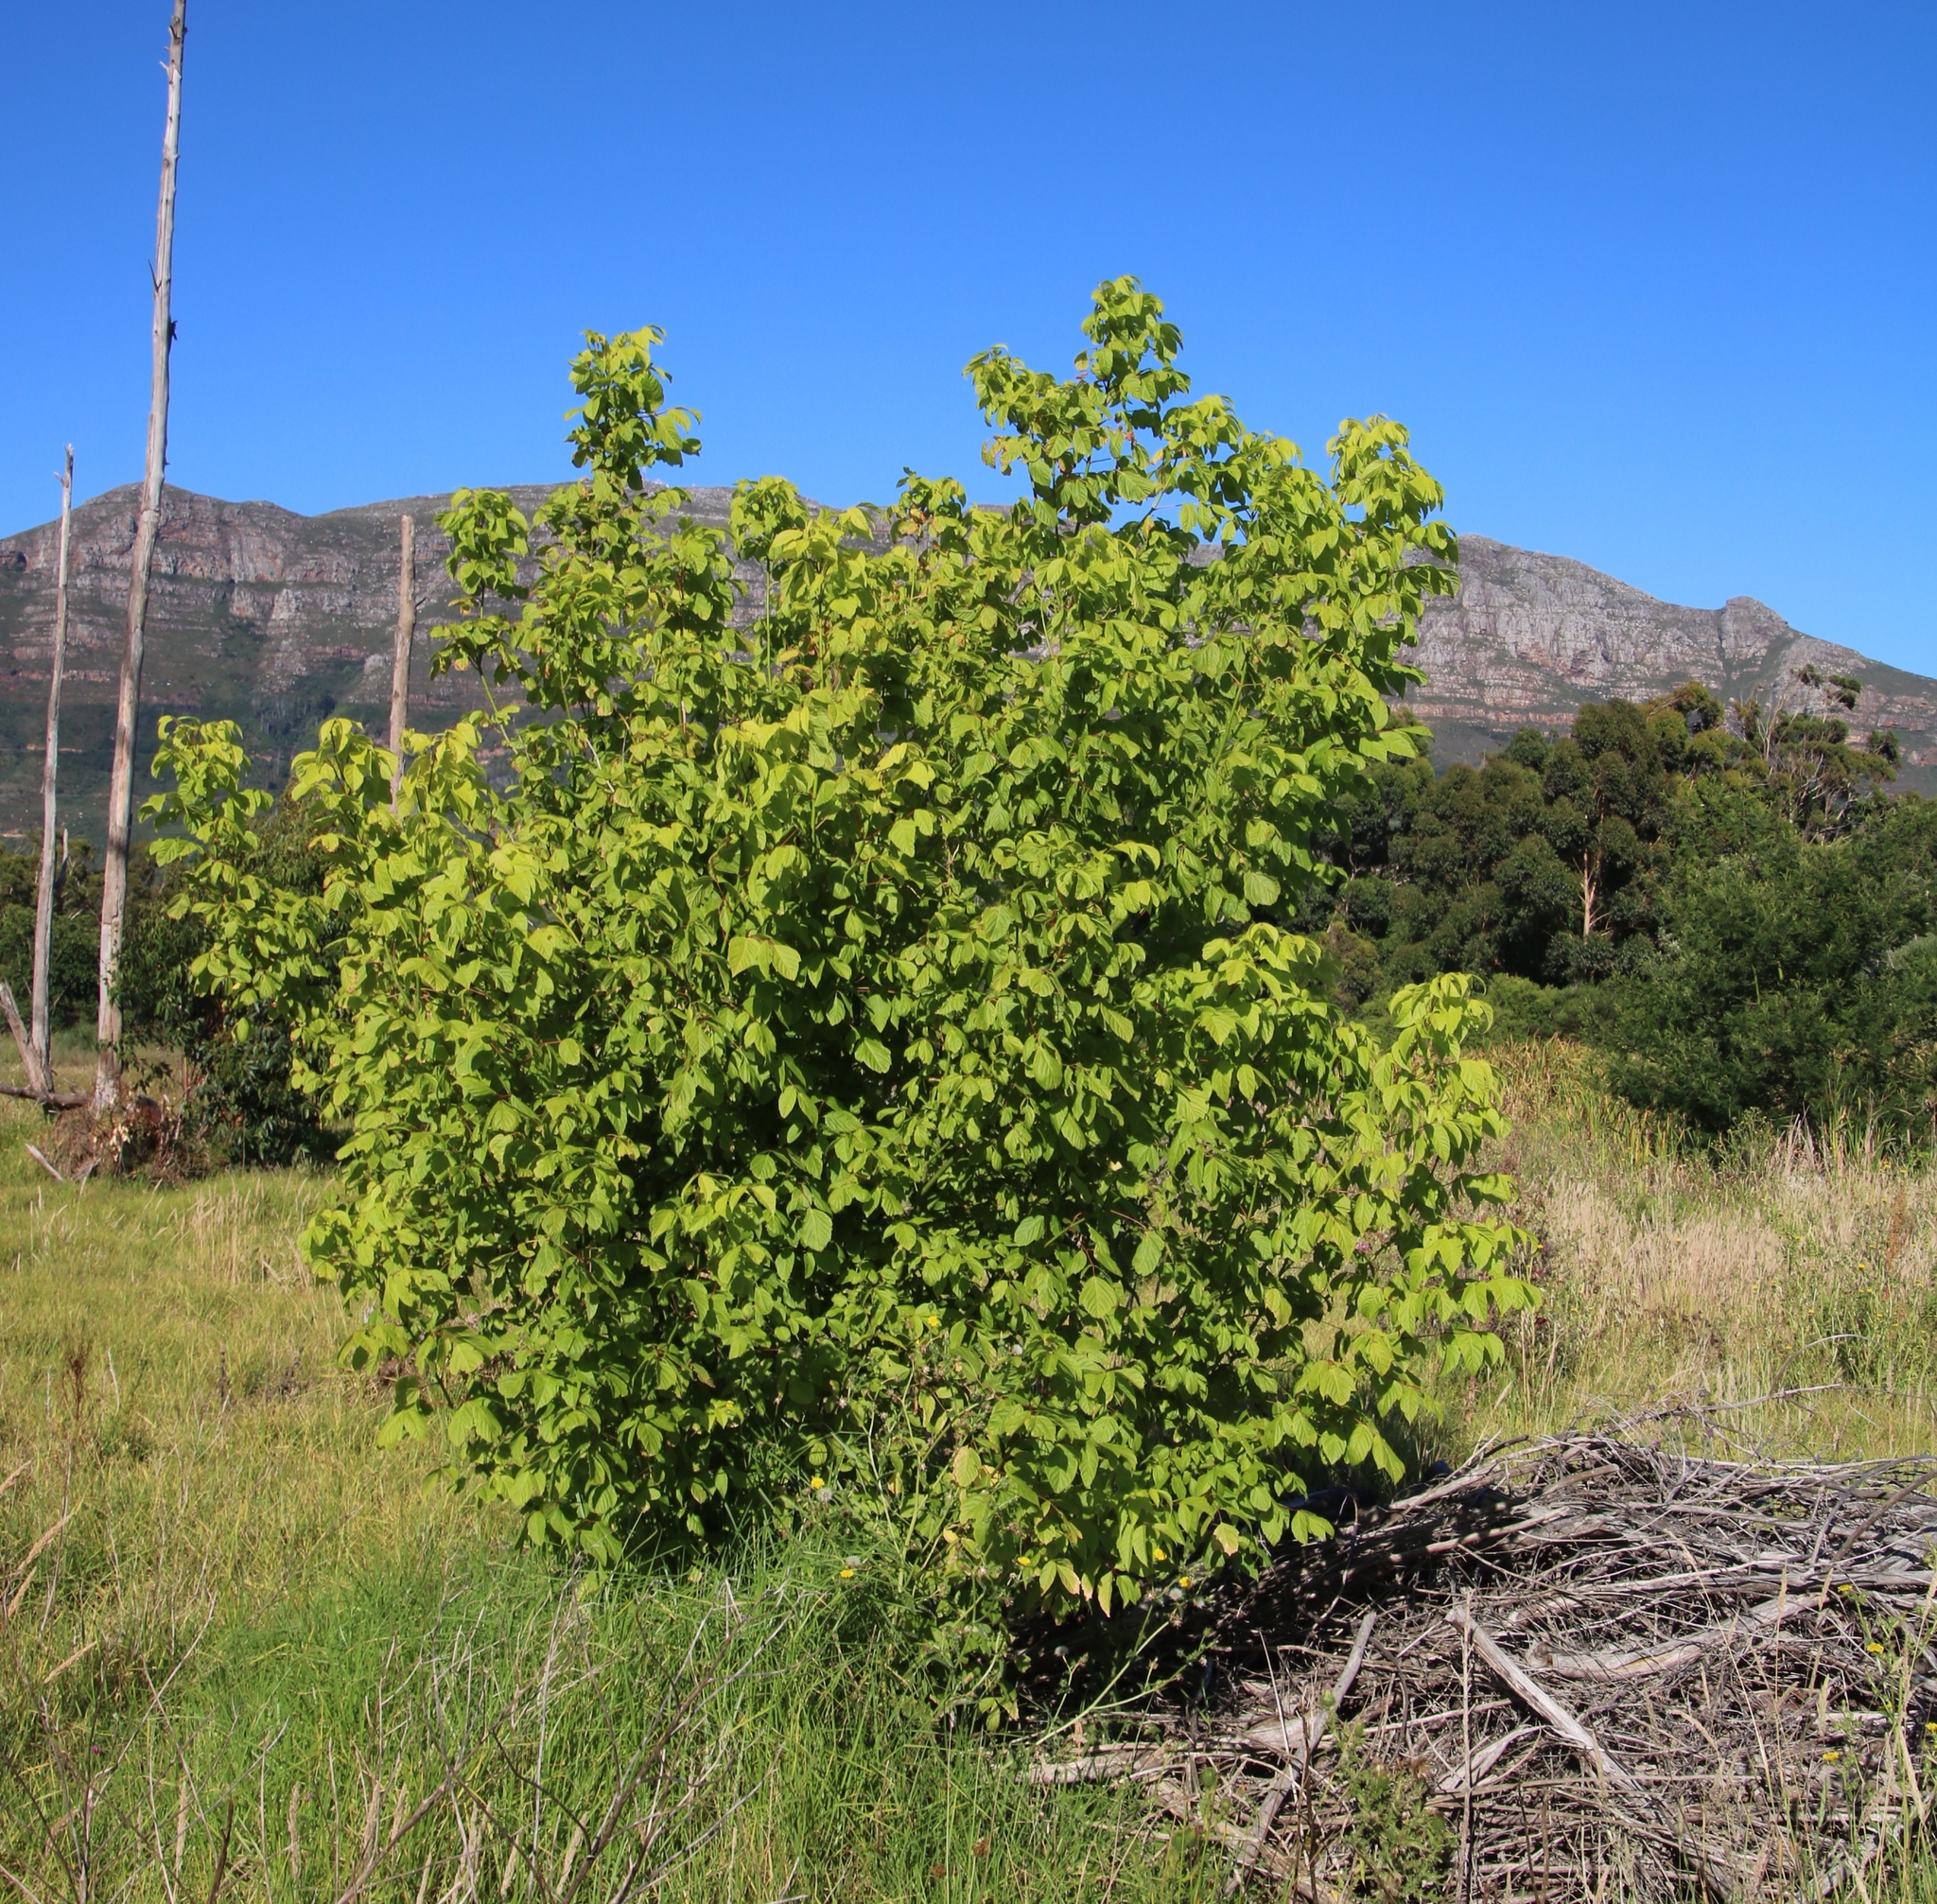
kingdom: Plantae
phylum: Tracheophyta
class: Magnoliopsida
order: Sapindales
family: Sapindaceae
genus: Acer
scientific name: Acer negundo
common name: Ashleaf maple
